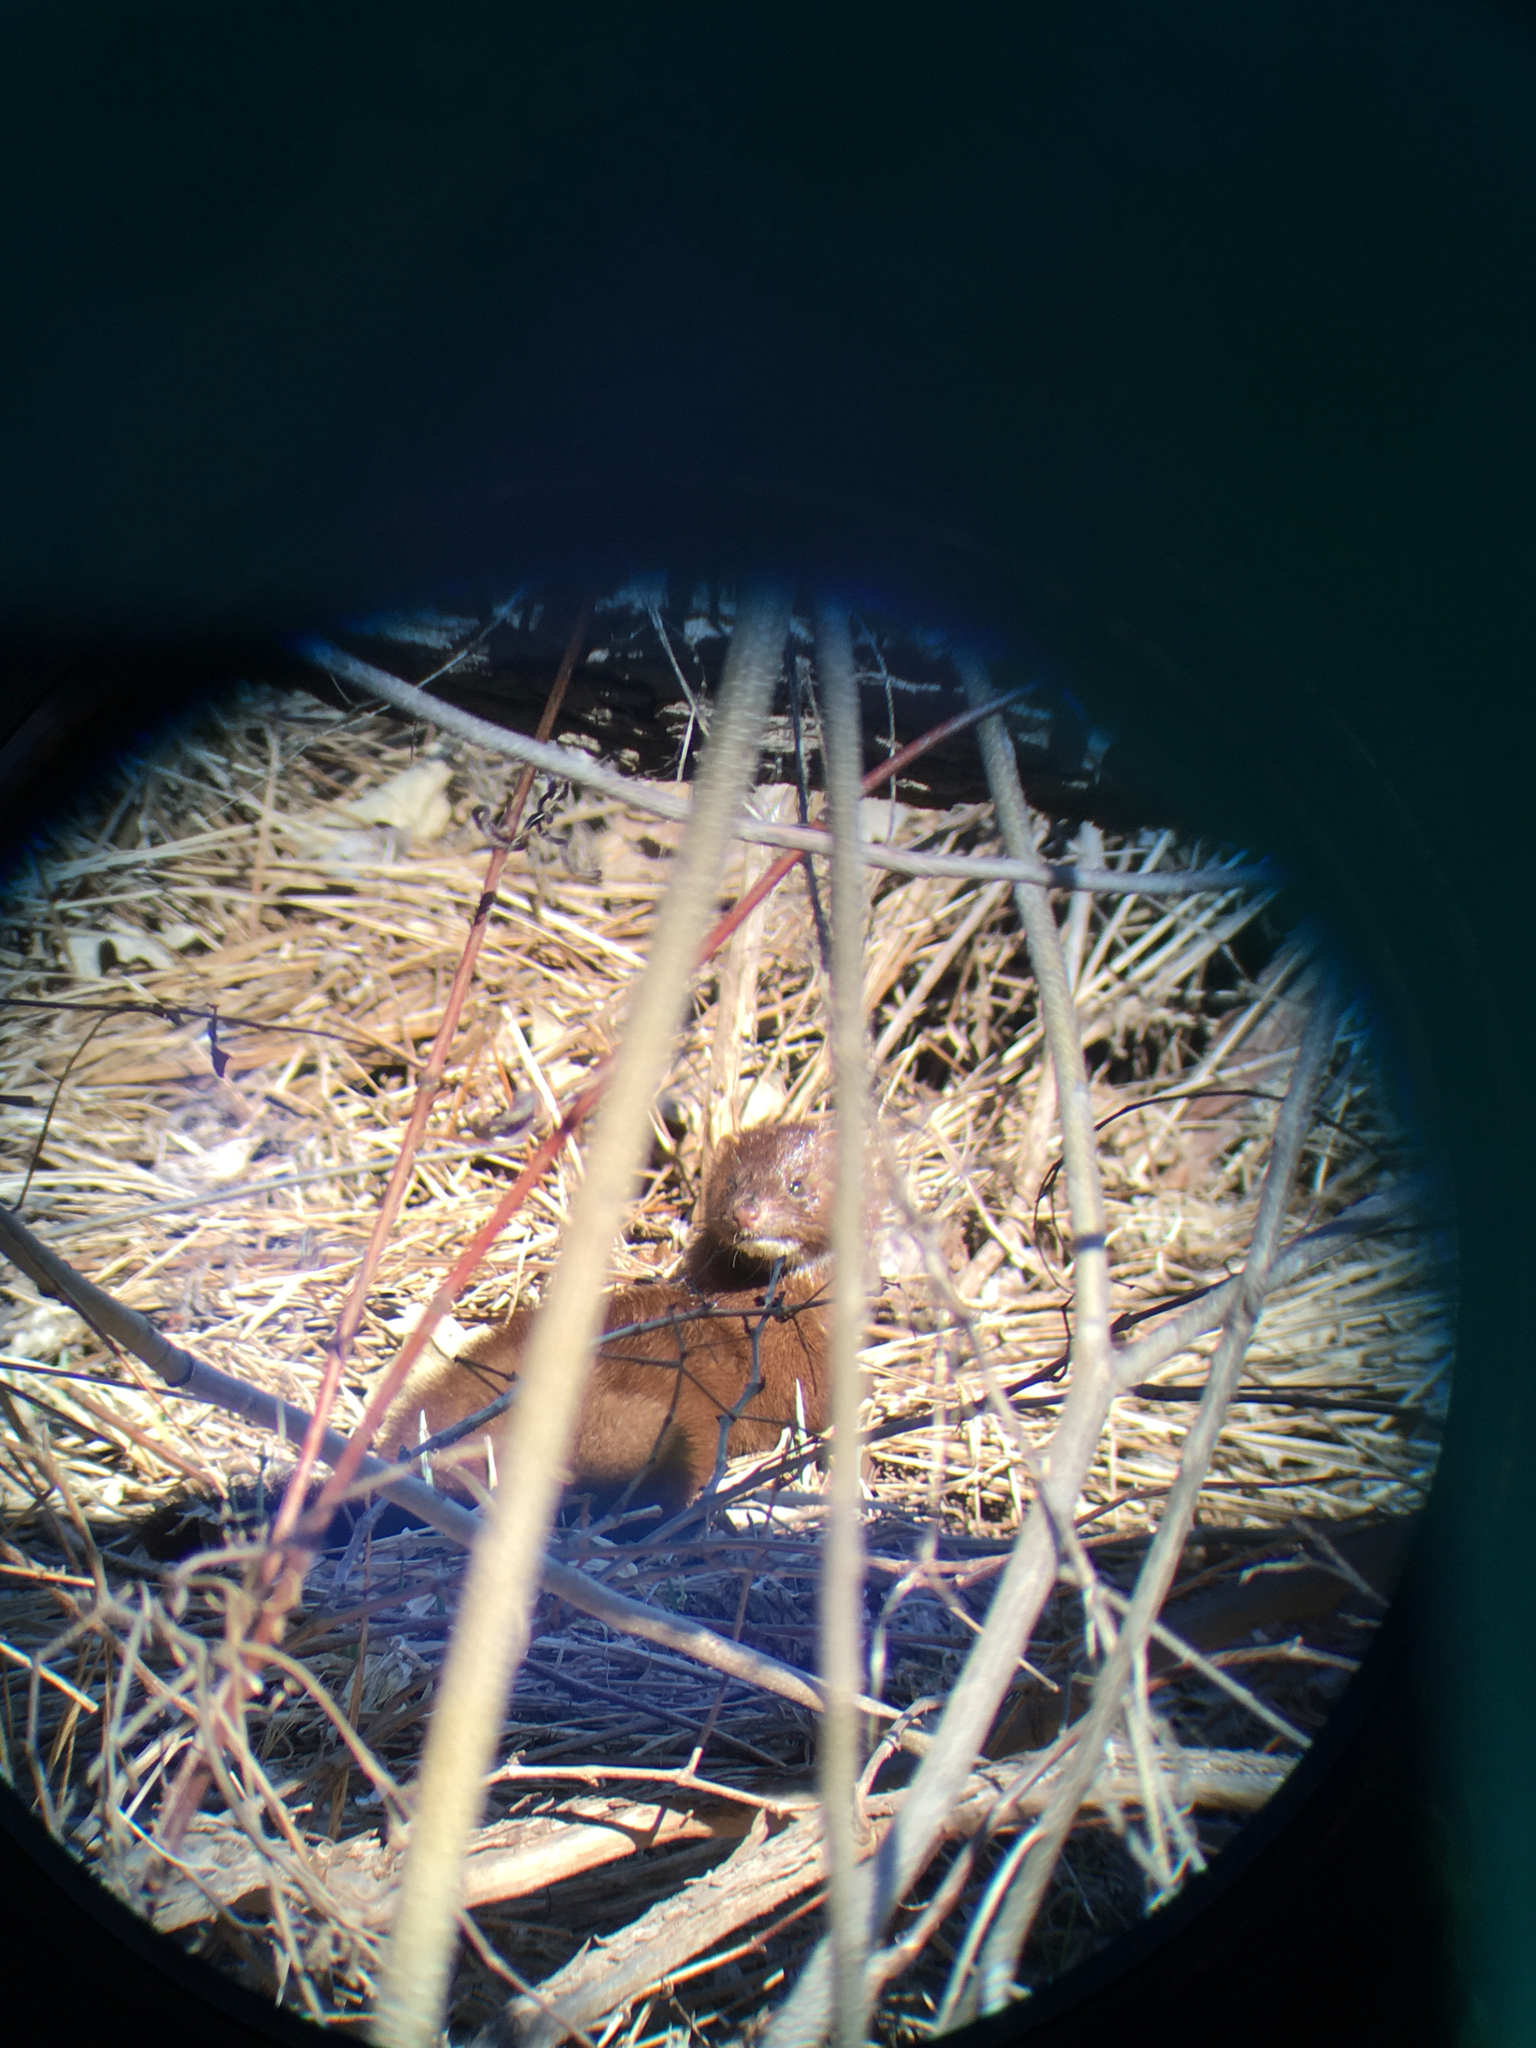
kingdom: Animalia
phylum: Chordata
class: Mammalia
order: Carnivora
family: Mustelidae
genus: Mustela
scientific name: Mustela
